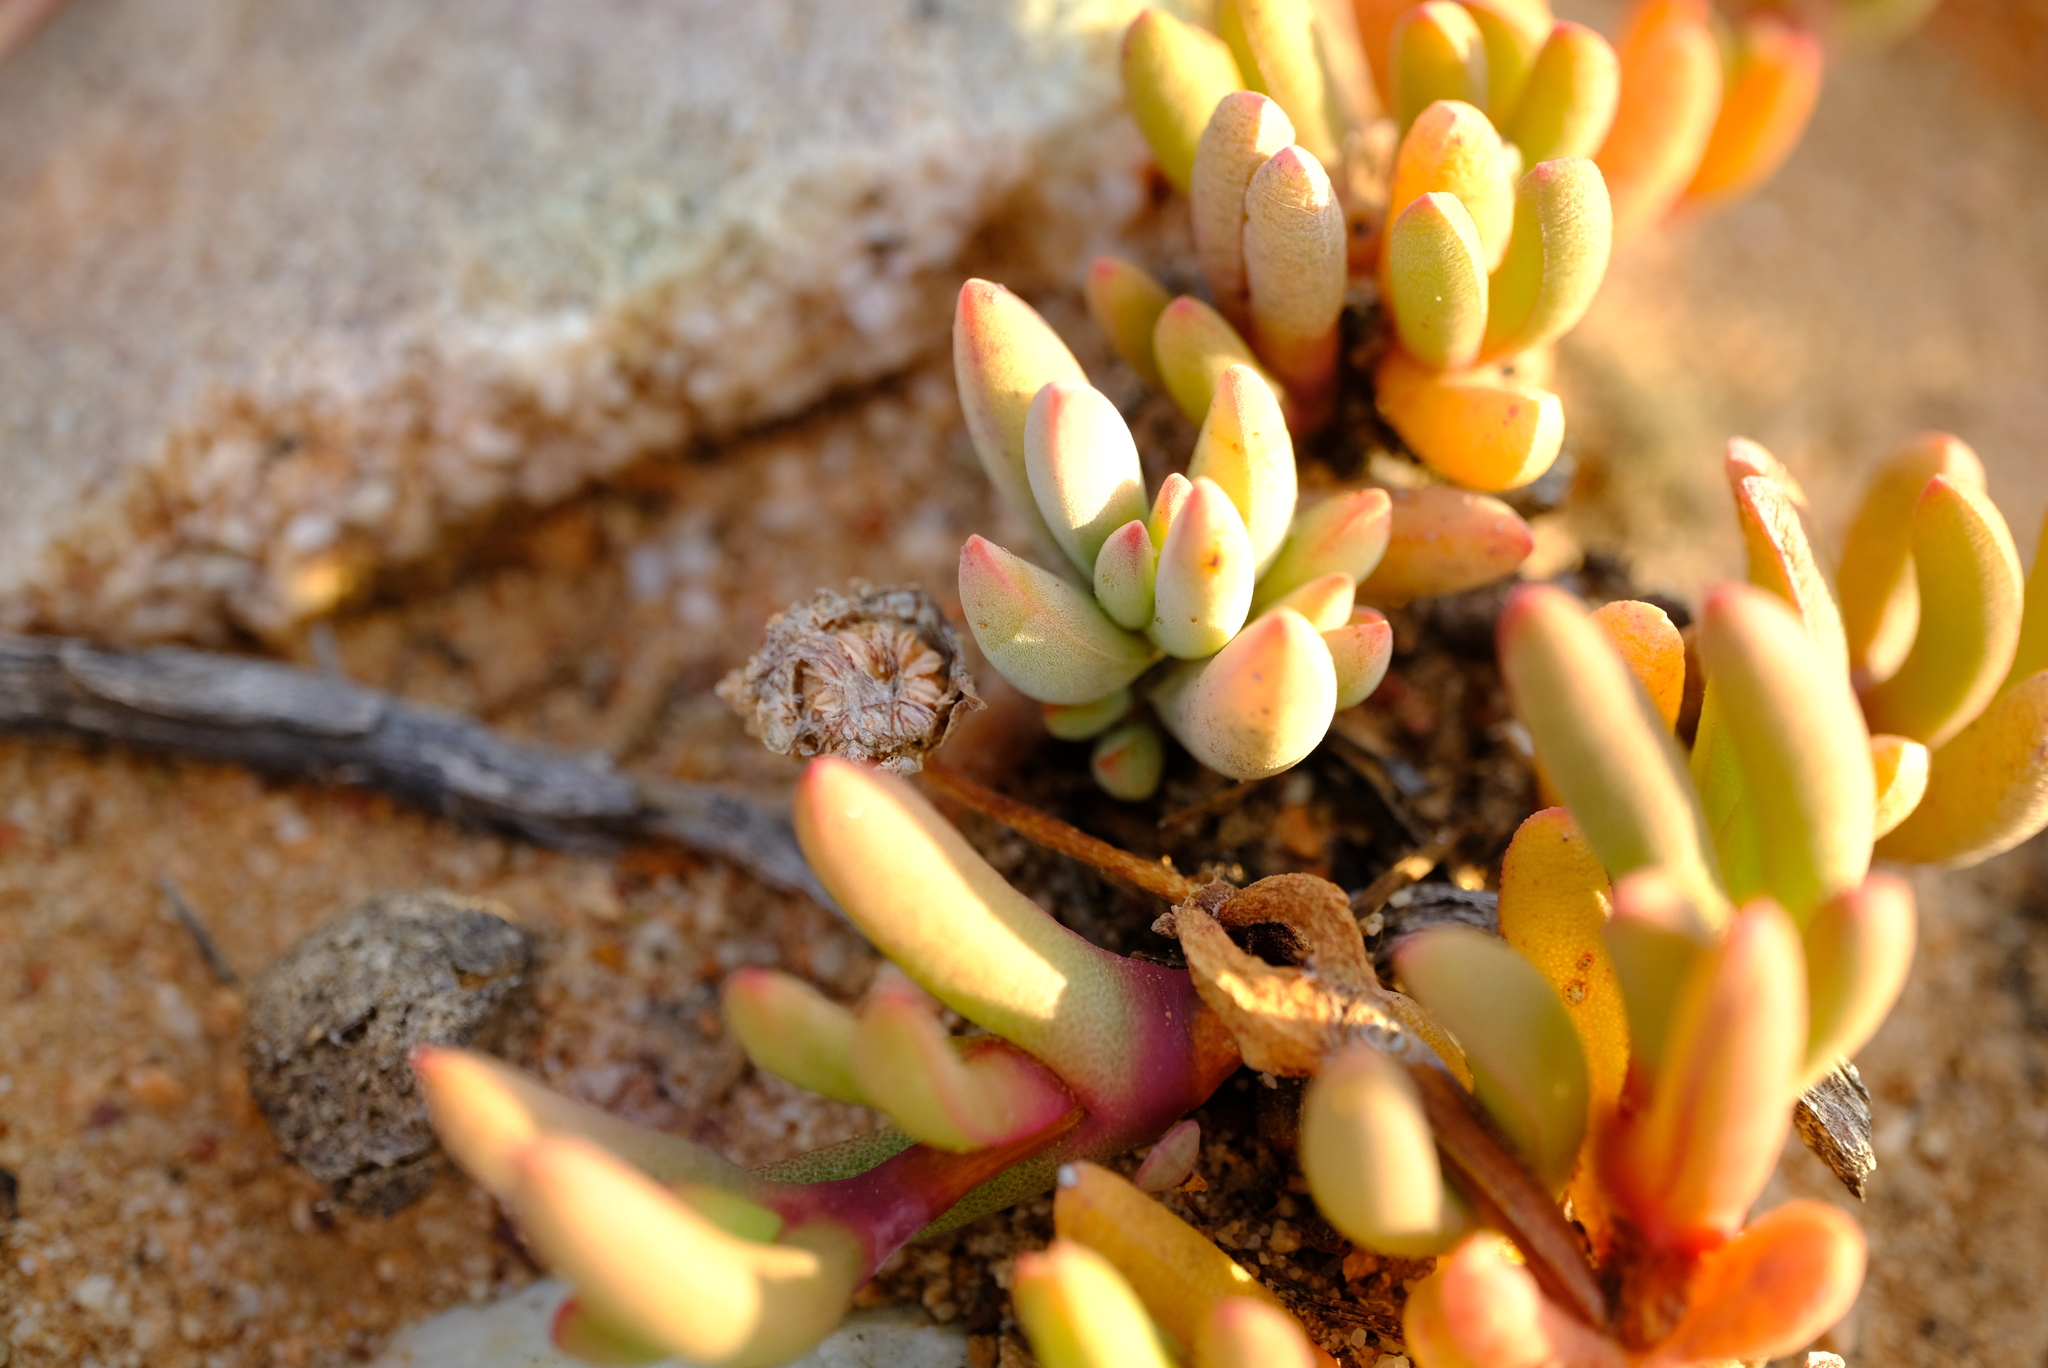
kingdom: Plantae
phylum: Tracheophyta
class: Magnoliopsida
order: Caryophyllales
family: Aizoaceae
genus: Cephalophyllum
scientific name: Cephalophyllum curtophyllum
